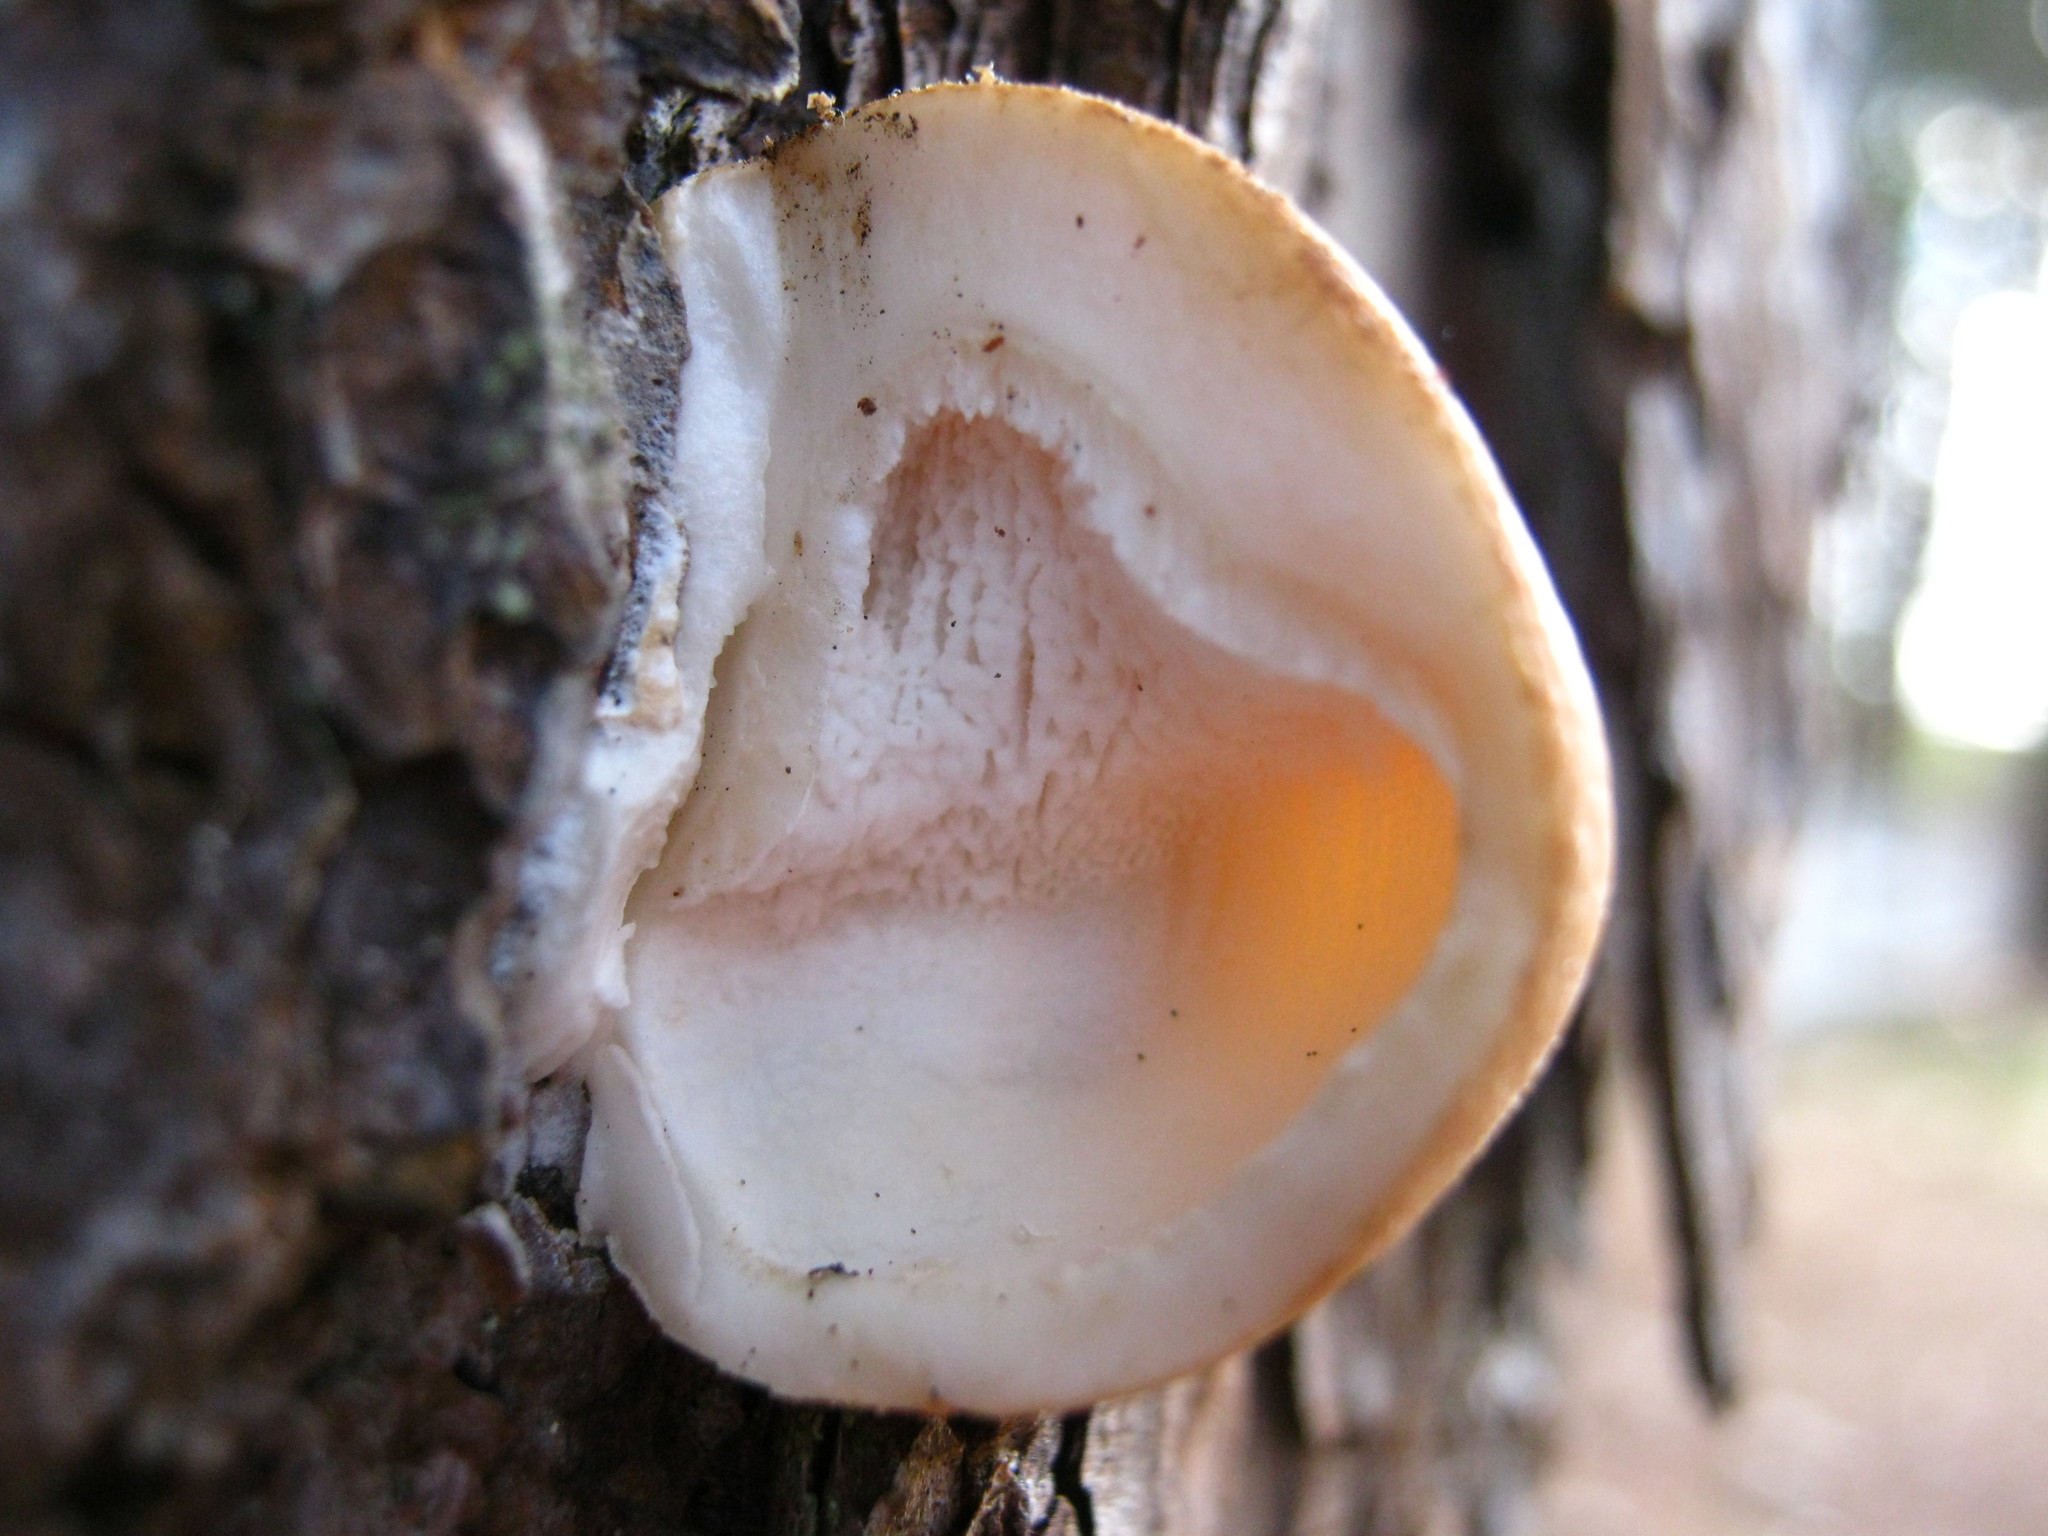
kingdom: Fungi
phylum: Basidiomycota
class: Agaricomycetes
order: Polyporales
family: Polyporaceae
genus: Cryptoporus
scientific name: Cryptoporus volvatus
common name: Veiled polypore
